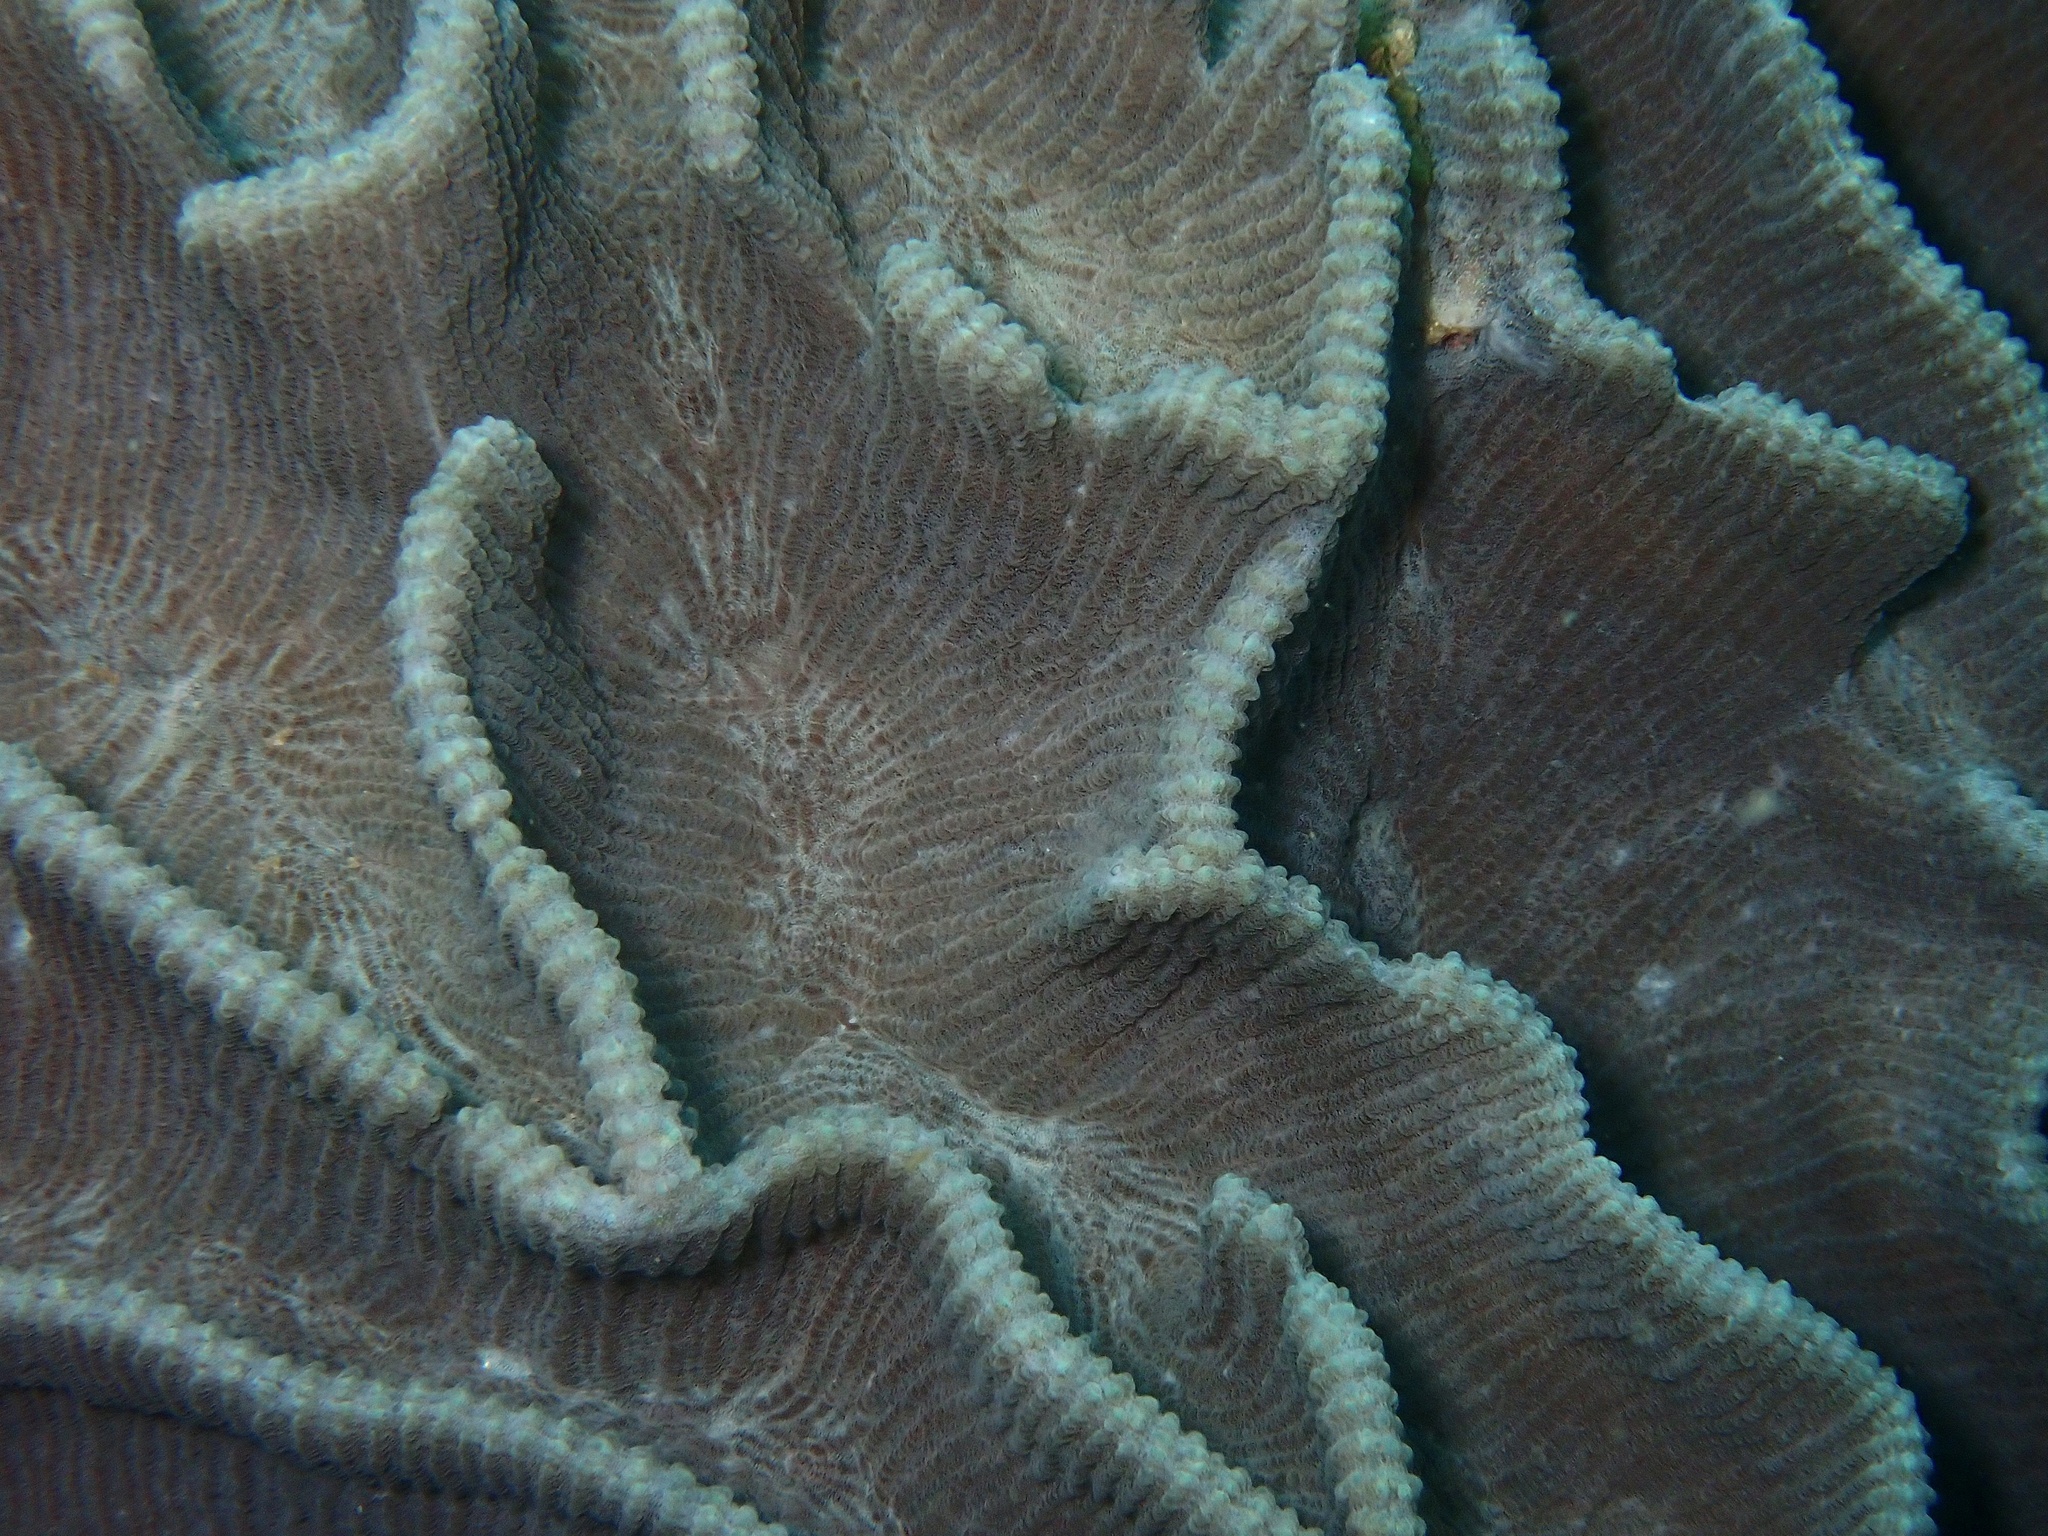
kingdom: Animalia
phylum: Cnidaria
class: Anthozoa
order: Scleractinia
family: Merulinidae
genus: Pectinia
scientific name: Pectinia lactuca
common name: Common lettuce coral
